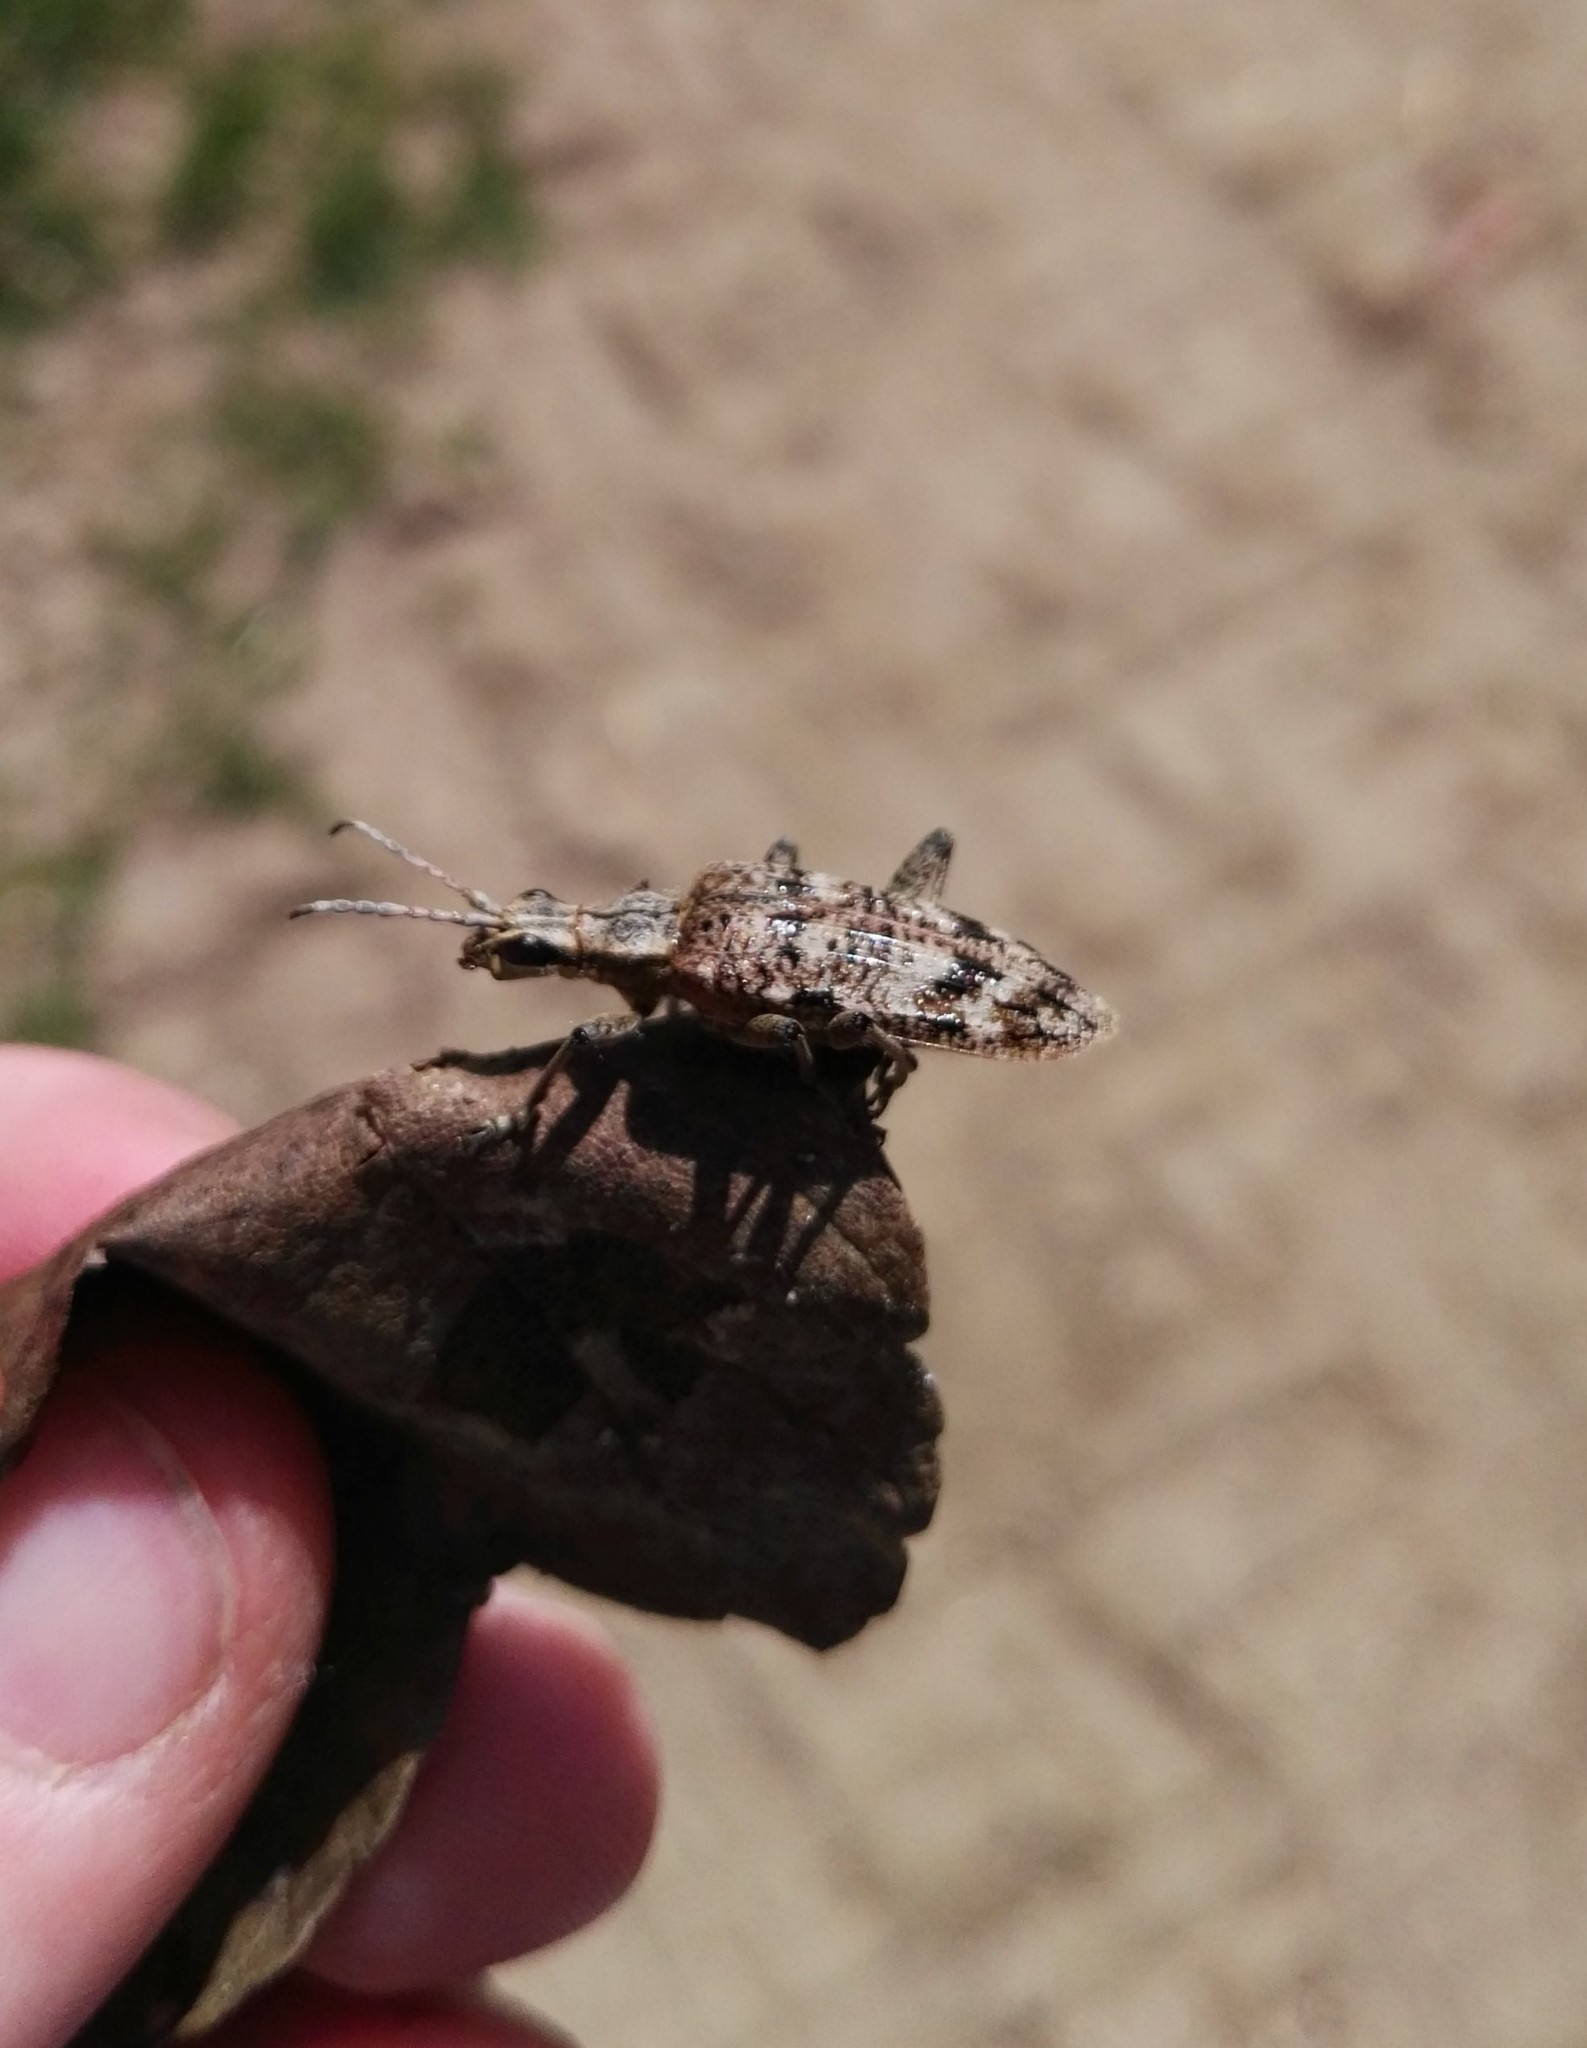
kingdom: Animalia
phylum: Arthropoda
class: Insecta
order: Coleoptera
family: Cerambycidae
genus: Rhagium
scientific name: Rhagium inquisitor
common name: Ribbed pine borer
